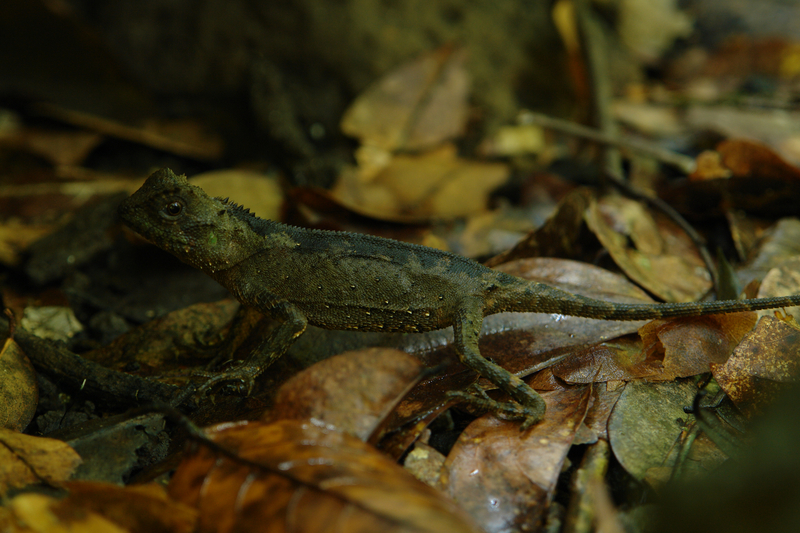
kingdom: Animalia
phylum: Chordata
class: Squamata
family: Agamidae
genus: Acanthosaura
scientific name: Acanthosaura coronata
